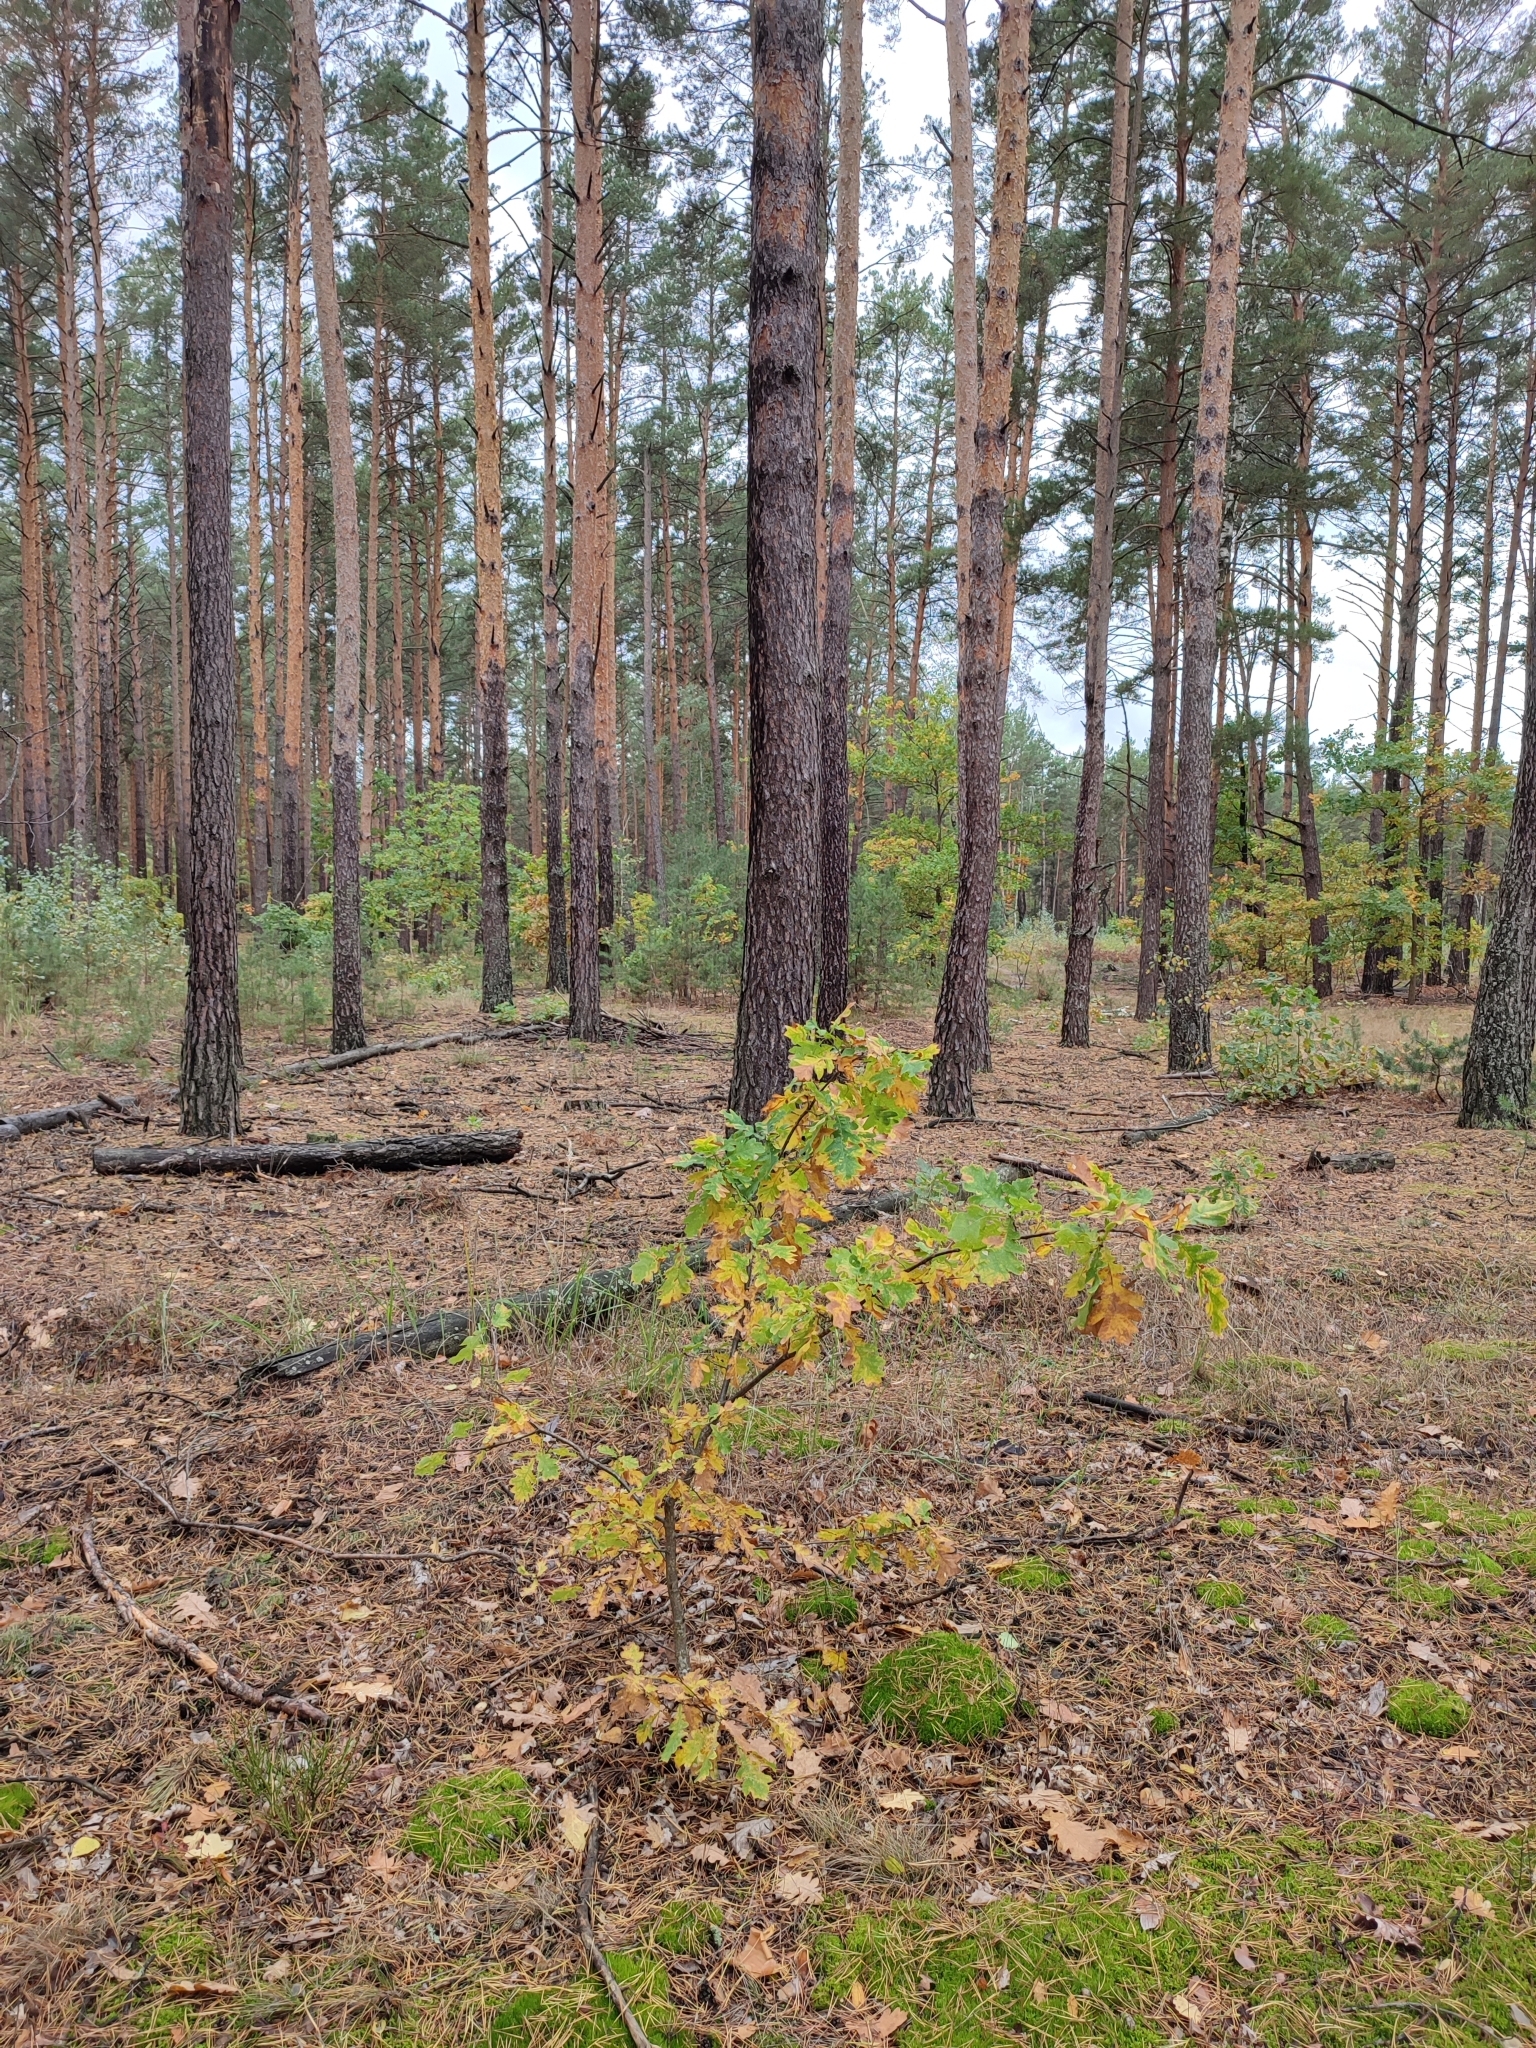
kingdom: Plantae
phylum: Tracheophyta
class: Magnoliopsida
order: Fagales
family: Fagaceae
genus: Quercus
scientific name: Quercus robur
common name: Pedunculate oak
